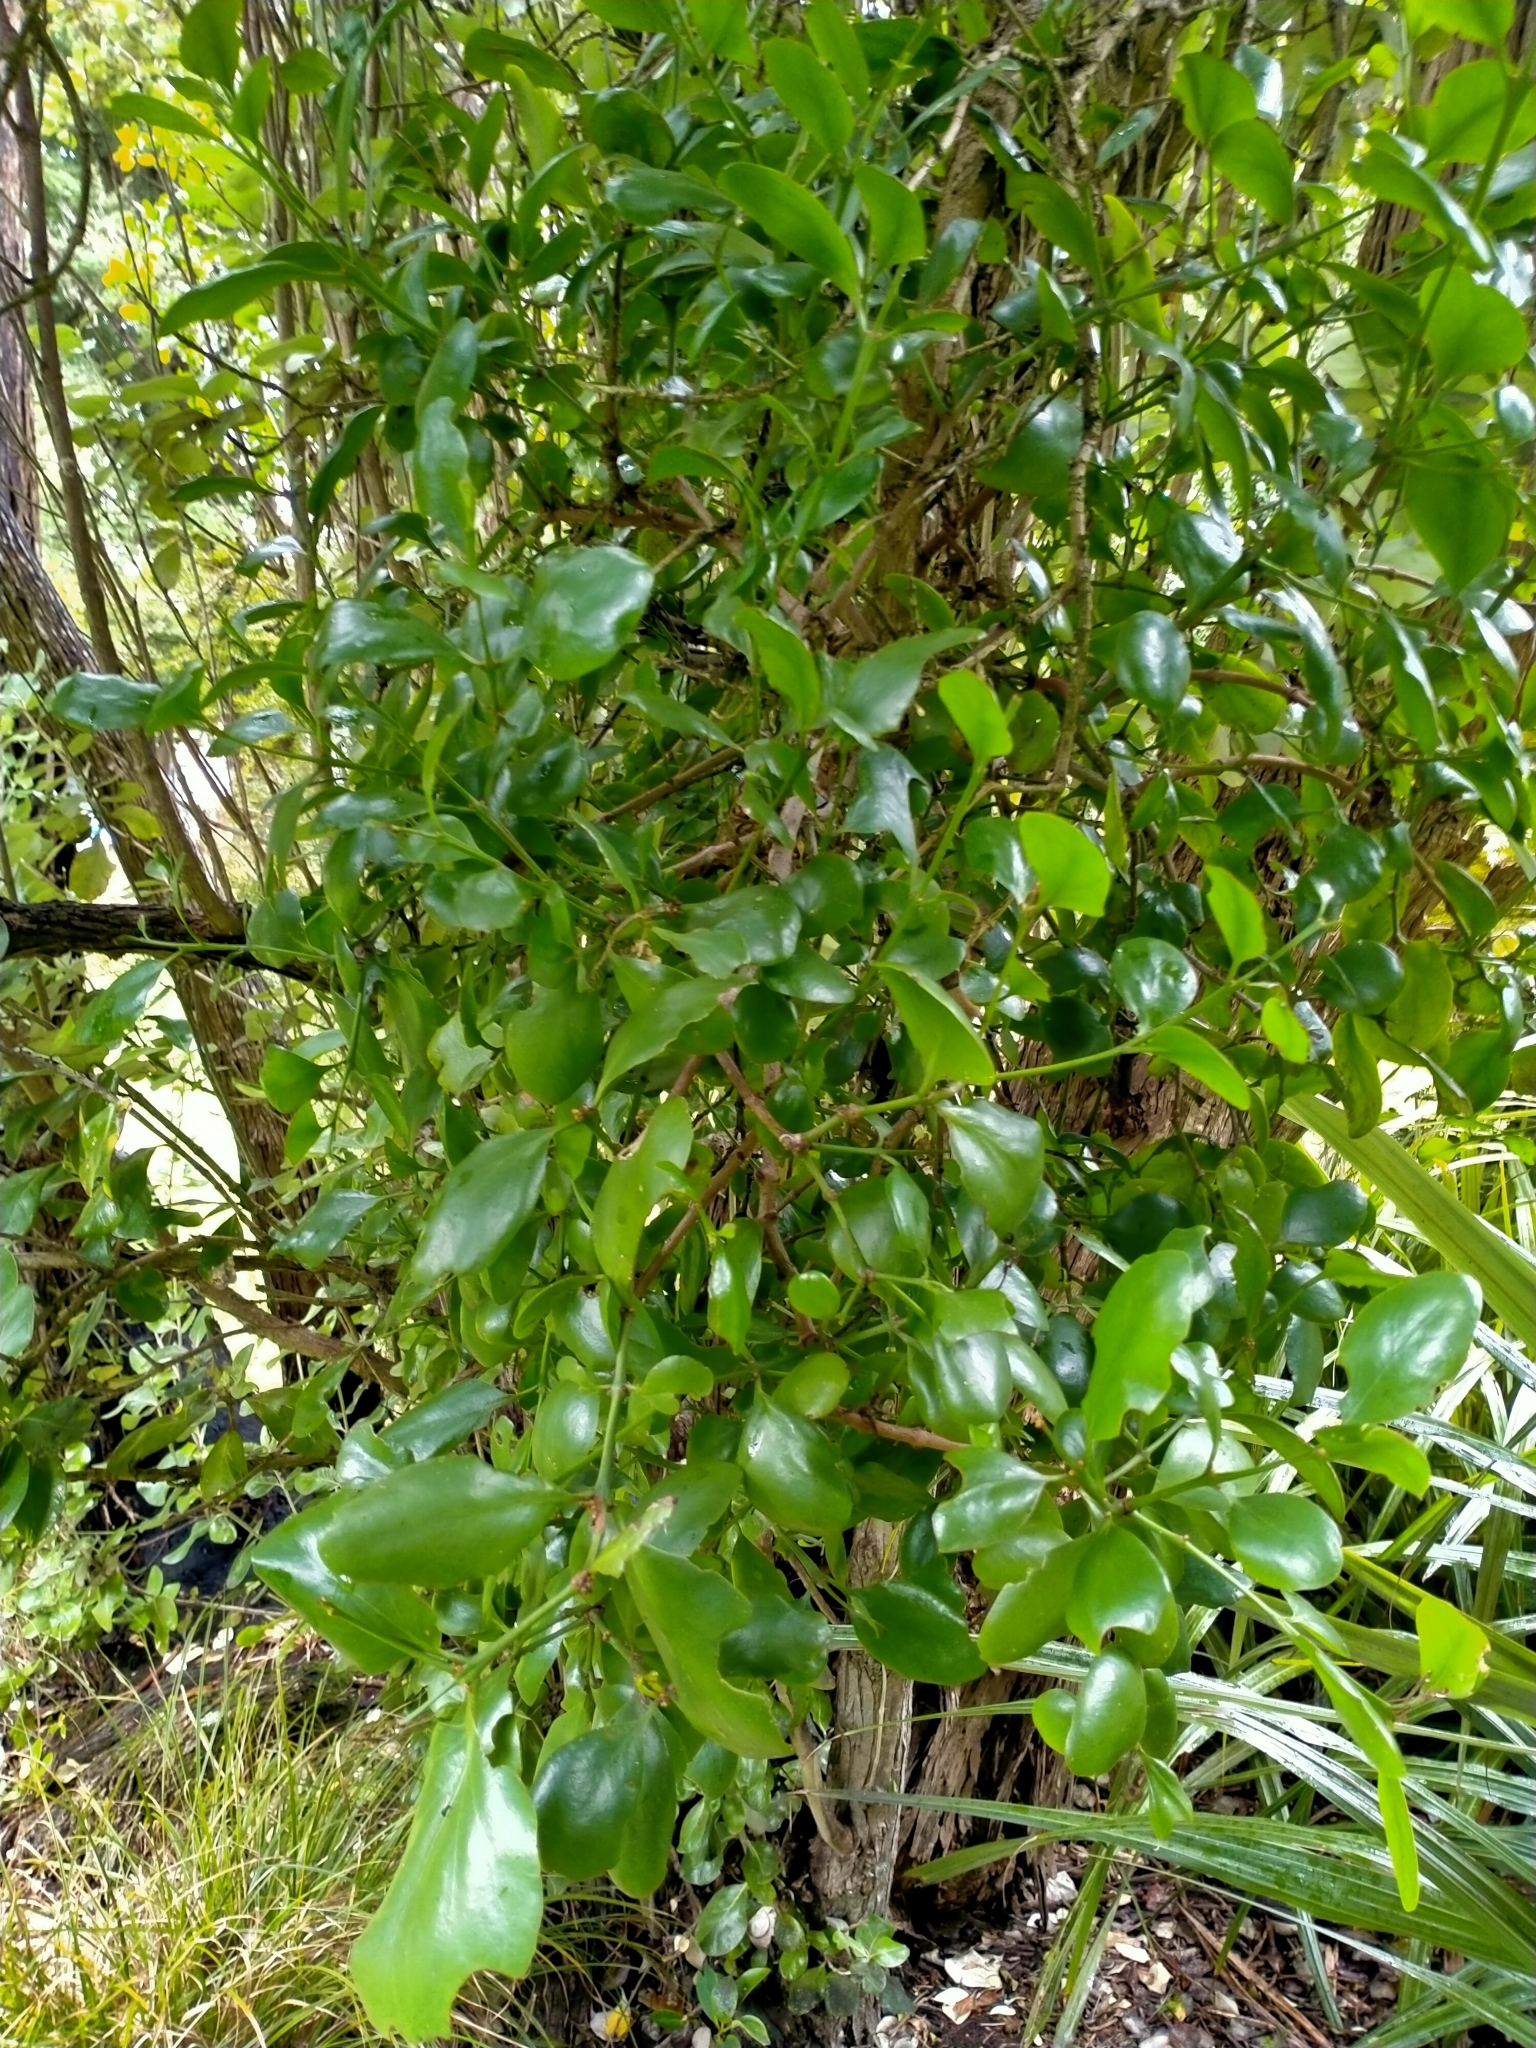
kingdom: Plantae
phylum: Tracheophyta
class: Magnoliopsida
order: Santalales
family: Loranthaceae
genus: Ileostylus
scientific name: Ileostylus micranthus
